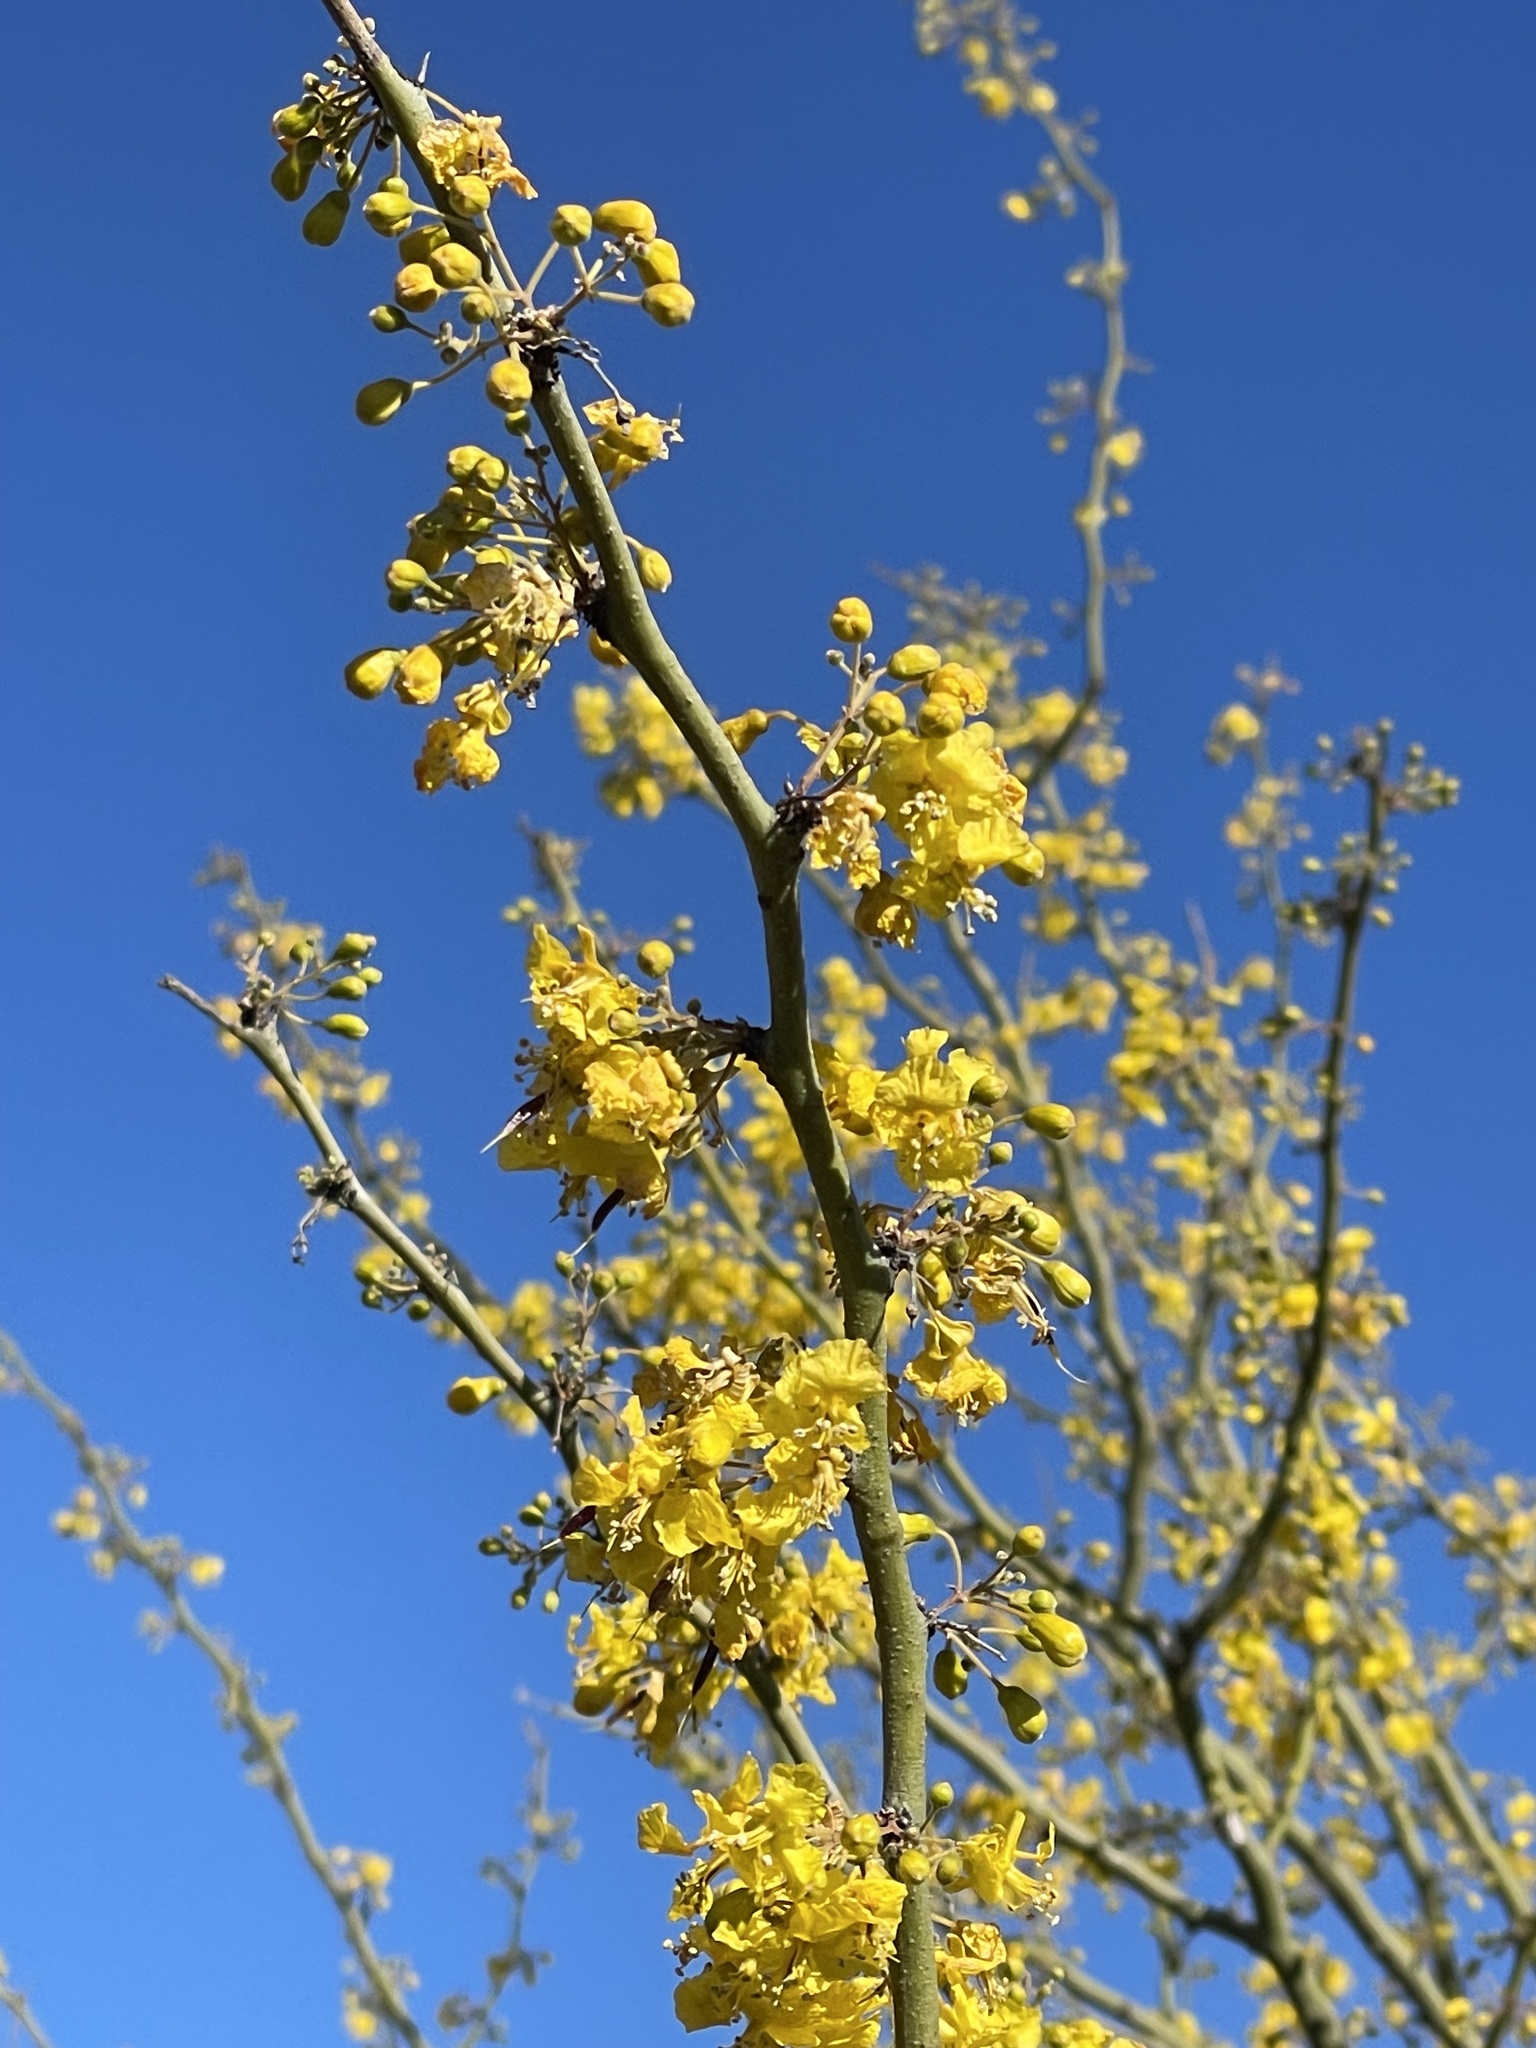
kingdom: Plantae
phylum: Tracheophyta
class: Magnoliopsida
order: Fabales
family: Fabaceae
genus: Parkinsonia
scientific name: Parkinsonia praecox
